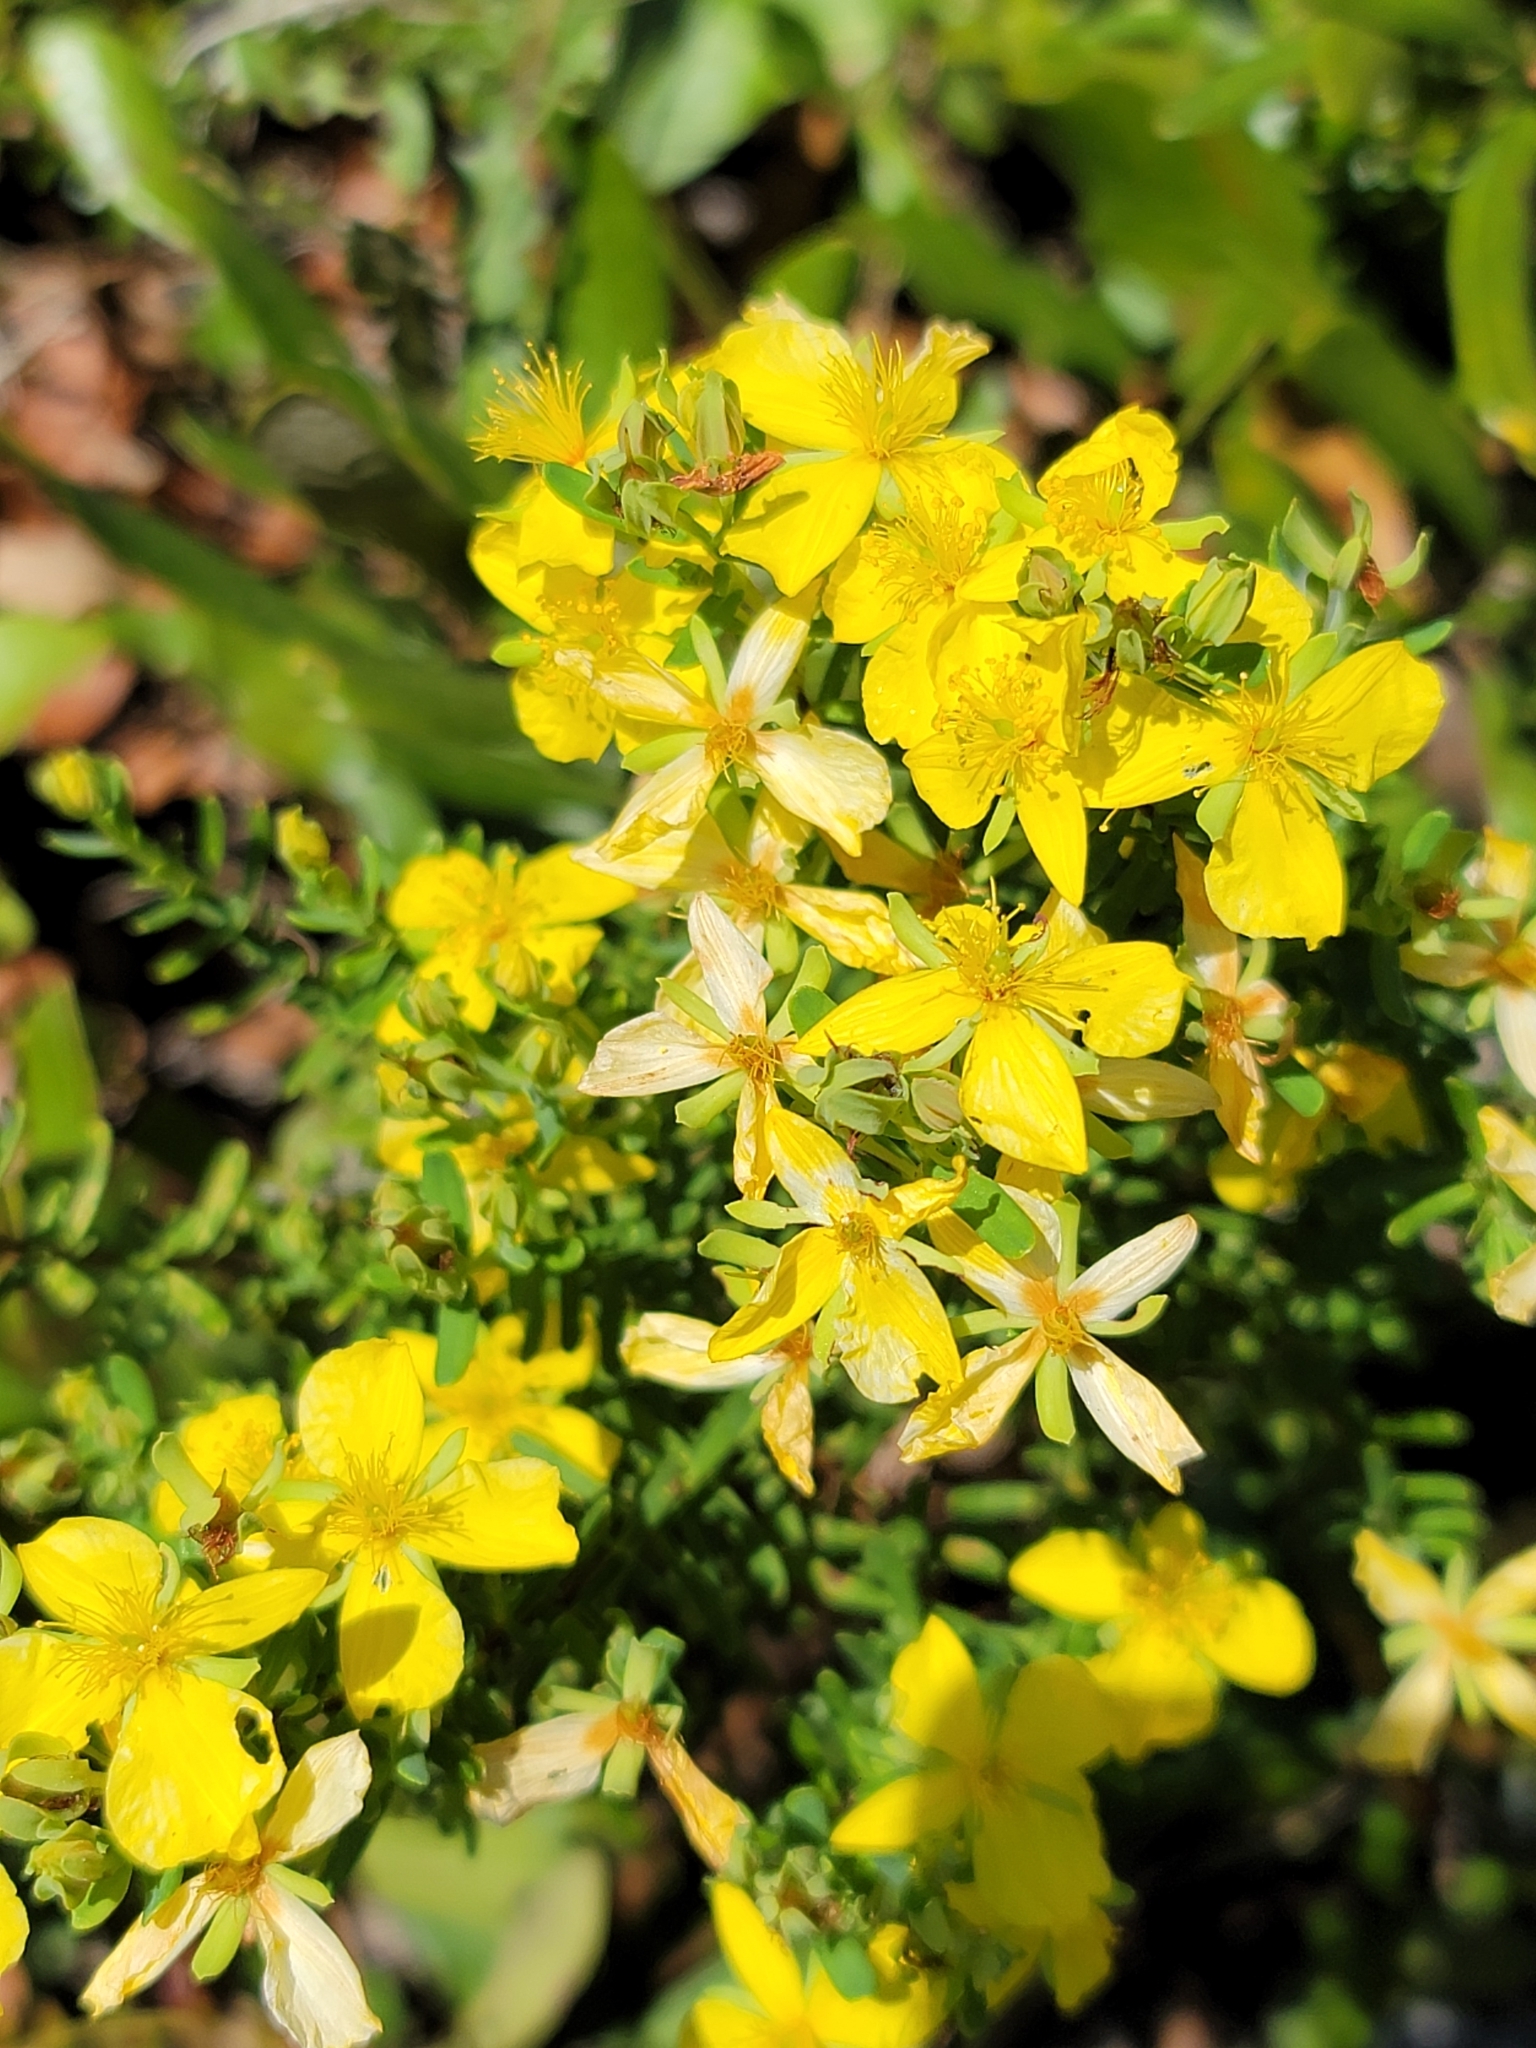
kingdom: Plantae
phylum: Tracheophyta
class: Magnoliopsida
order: Malpighiales
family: Hypericaceae
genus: Hypericum
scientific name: Hypericum microsepalum
